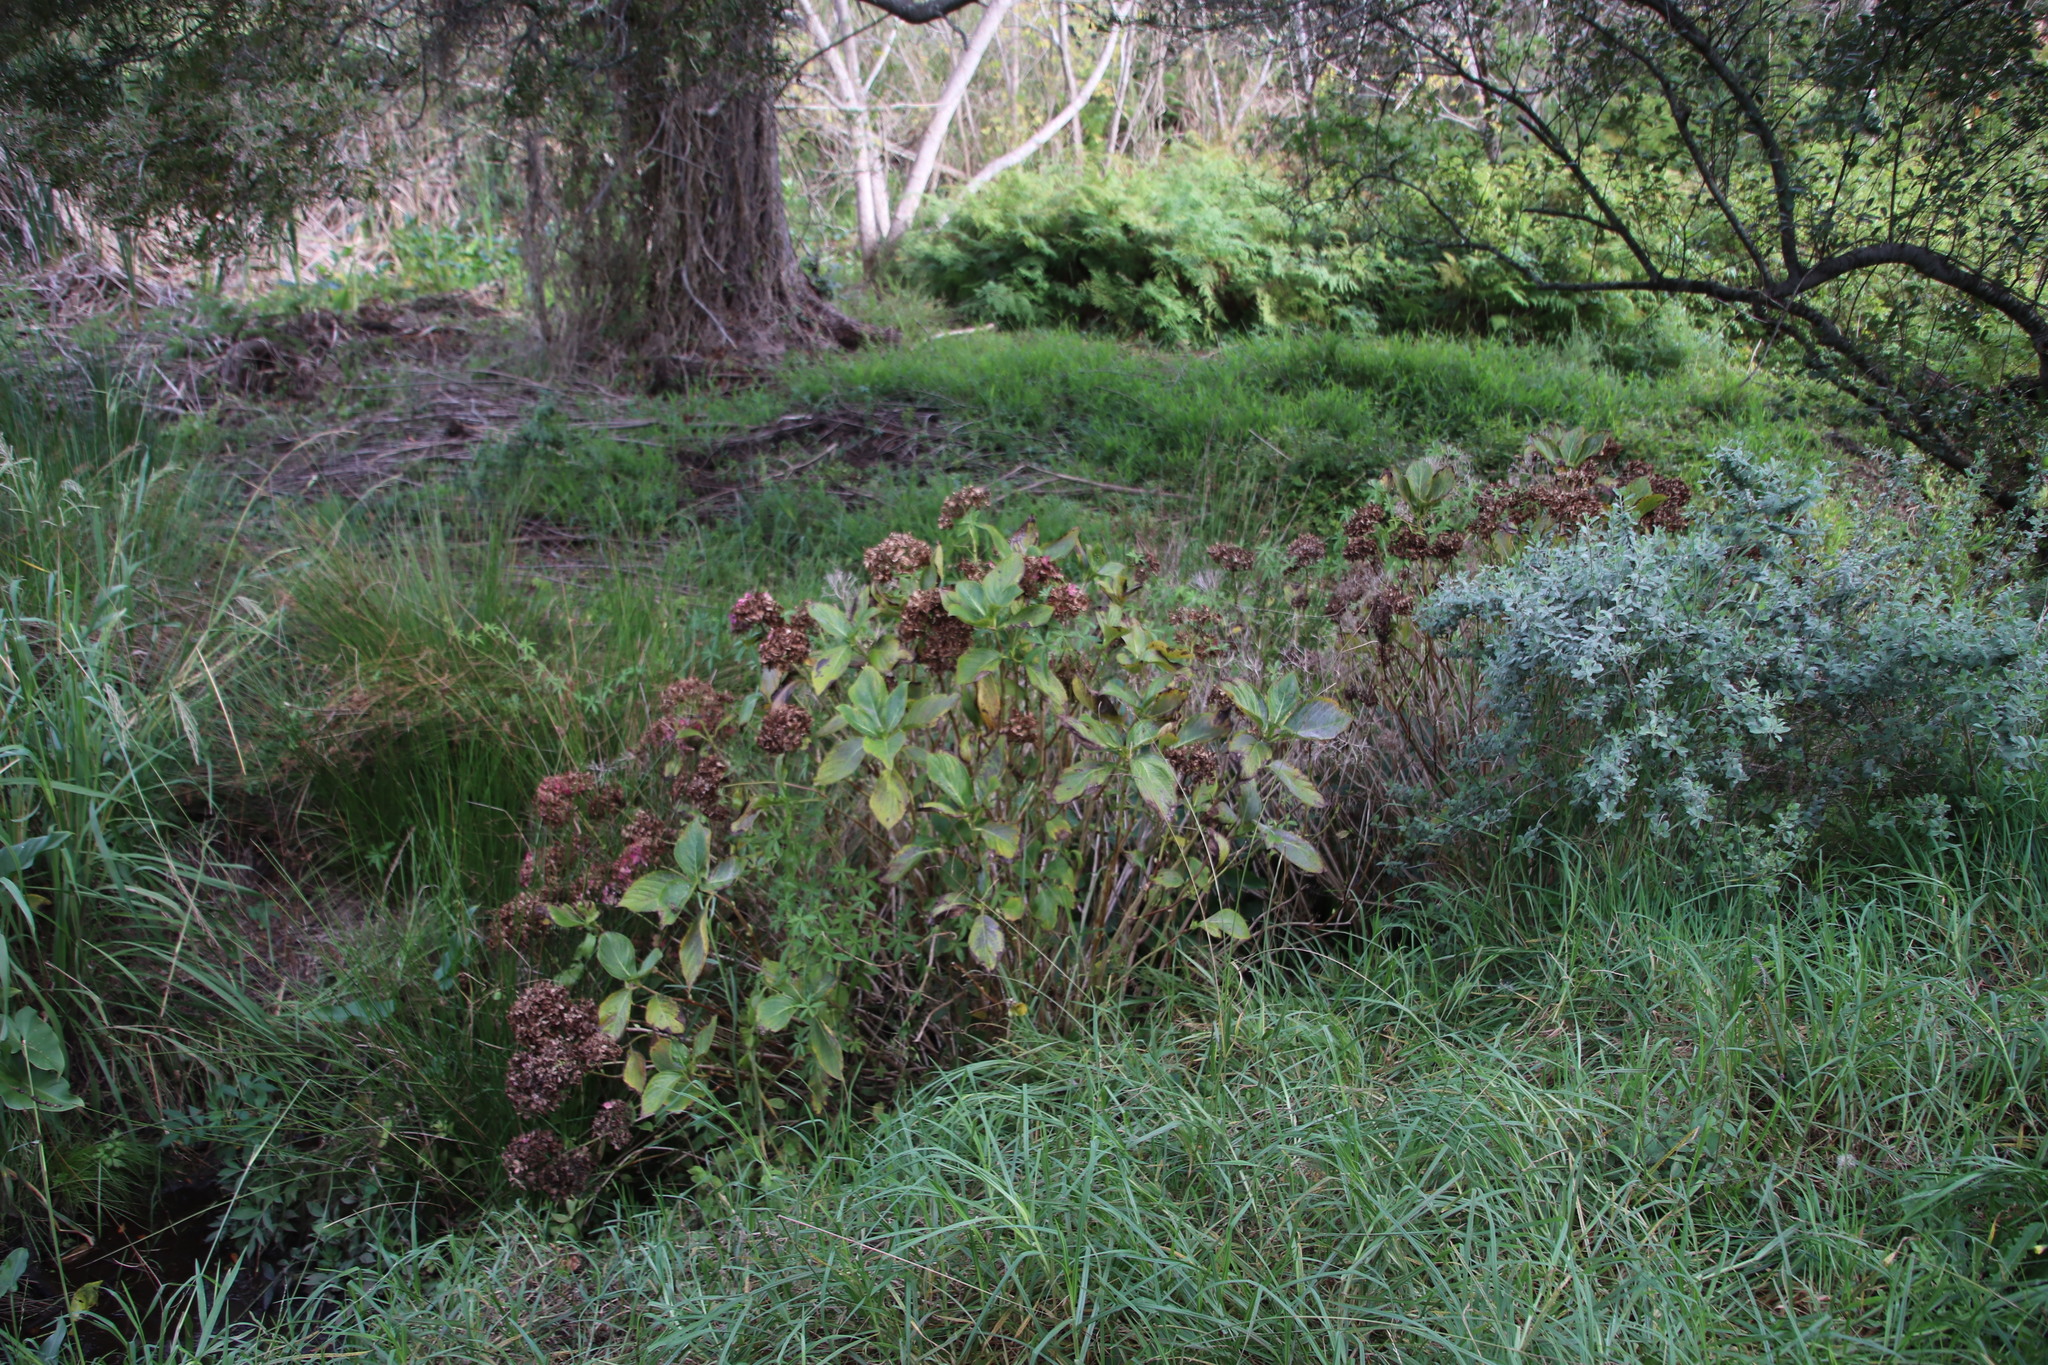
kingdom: Plantae
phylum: Tracheophyta
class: Magnoliopsida
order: Cornales
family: Hydrangeaceae
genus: Hydrangea
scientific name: Hydrangea macrophylla
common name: Hydrangea
